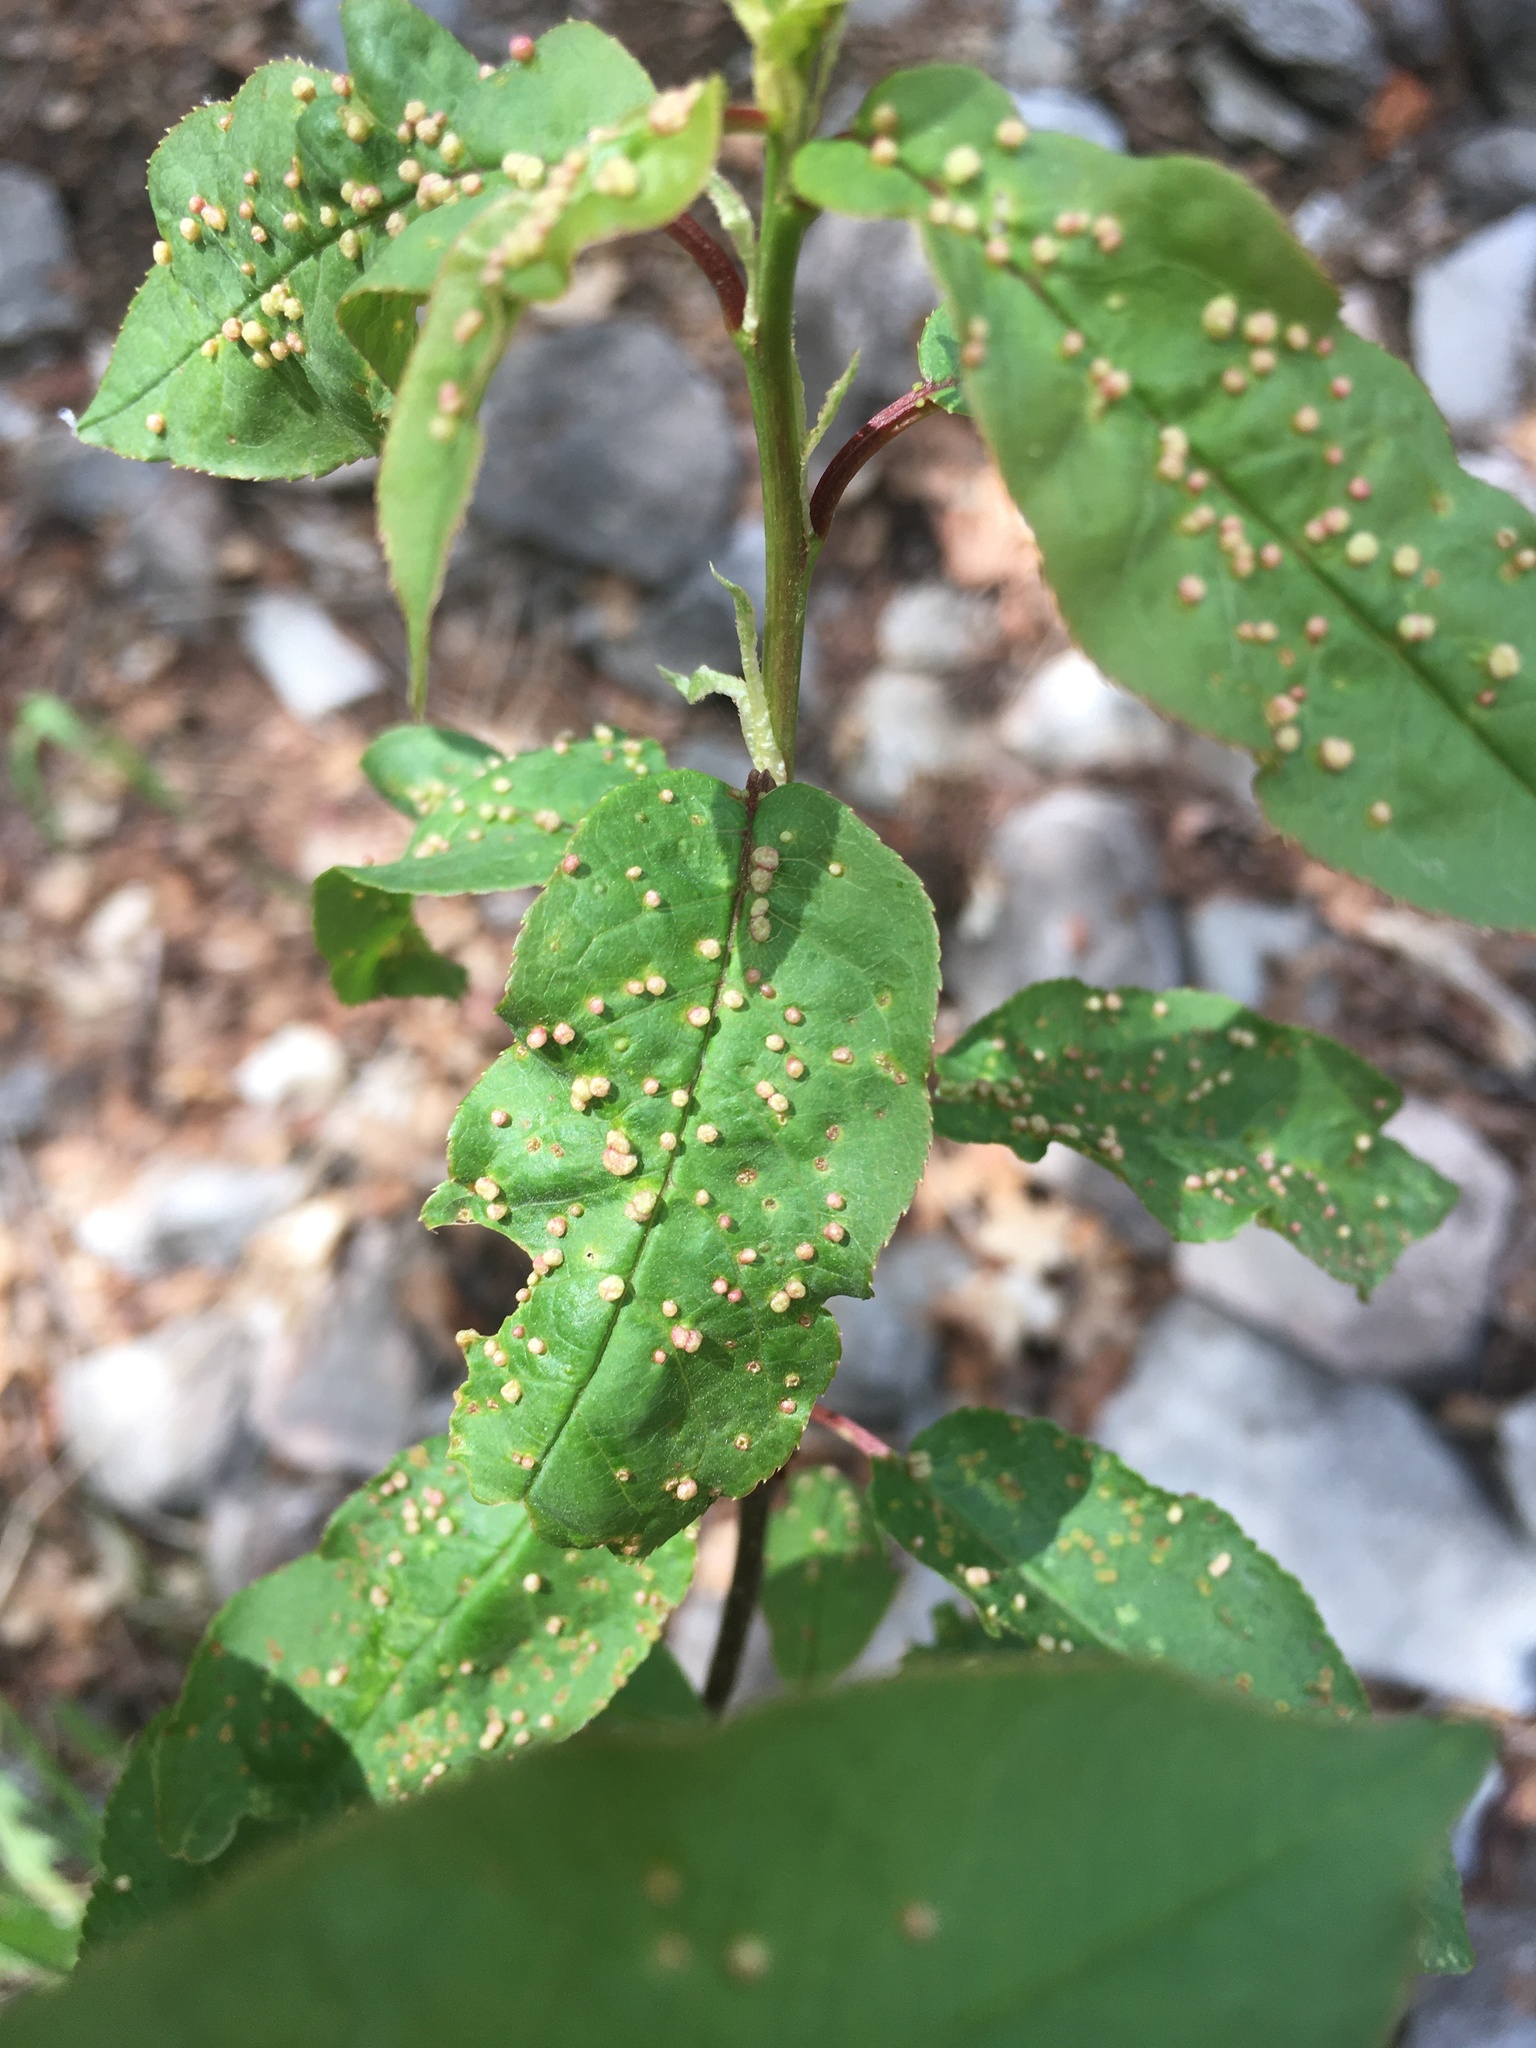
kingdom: Animalia
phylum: Arthropoda
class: Arachnida
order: Trombidiformes
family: Eriophyidae
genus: Eriophyes
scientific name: Eriophyes emarginatae
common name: Plum leaf gall mite
